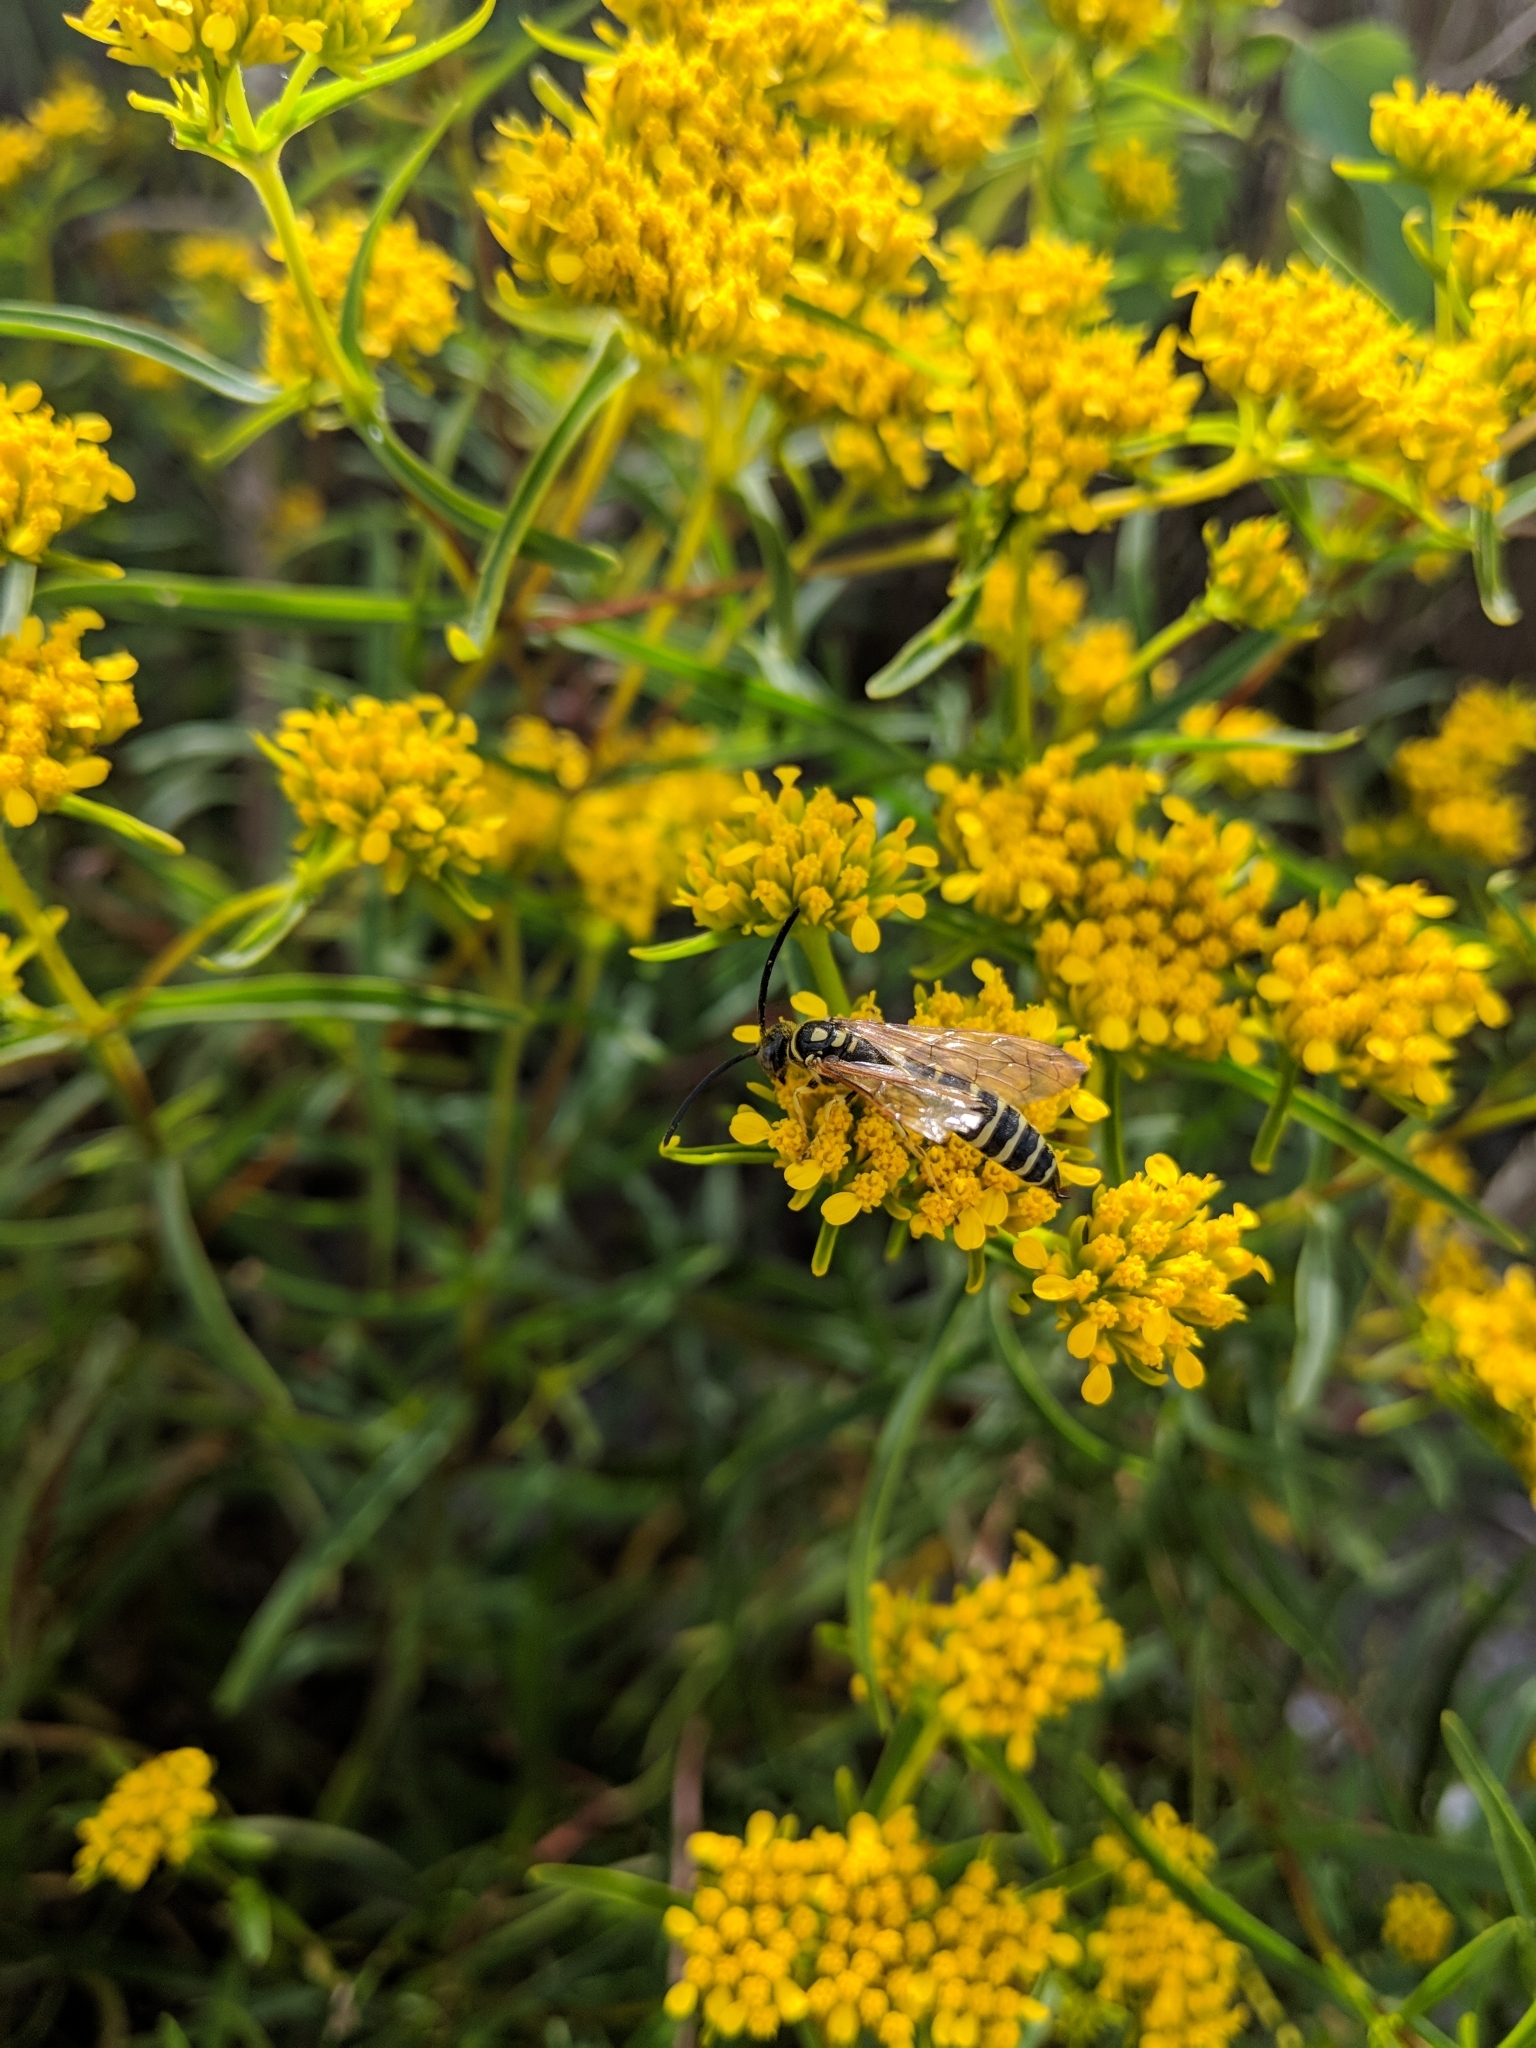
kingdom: Animalia
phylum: Arthropoda
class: Insecta
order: Hymenoptera
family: Tiphiidae
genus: Myzinum
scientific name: Myzinum
